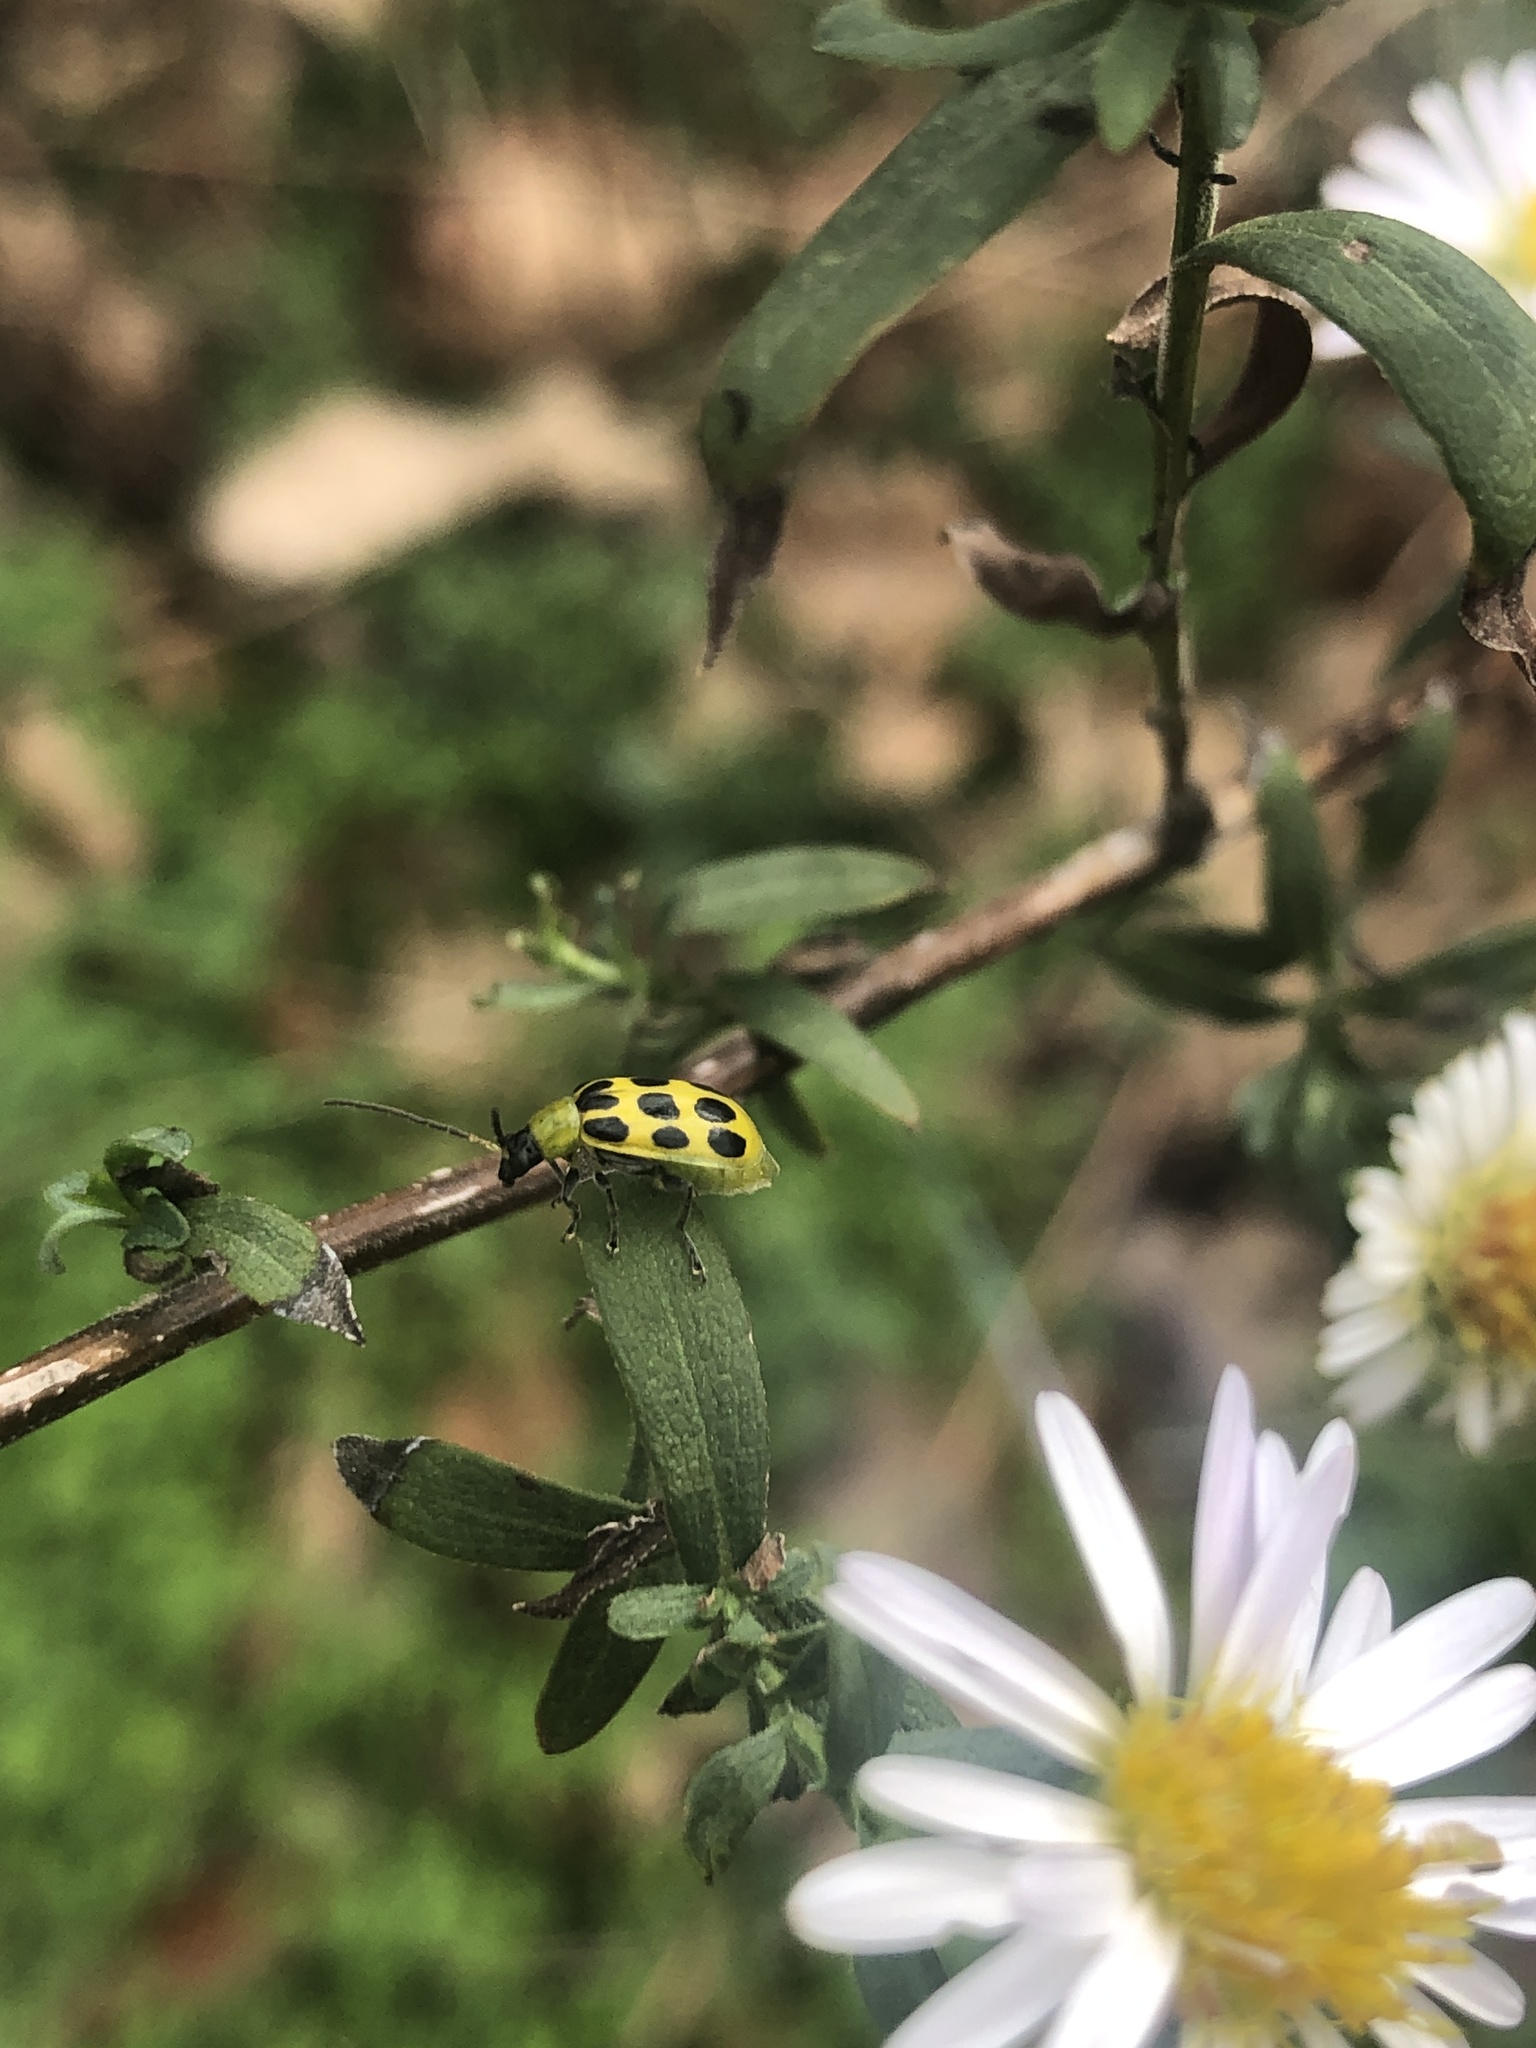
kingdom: Animalia
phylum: Arthropoda
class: Insecta
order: Coleoptera
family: Chrysomelidae
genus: Diabrotica
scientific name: Diabrotica undecimpunctata
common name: Spotted cucumber beetle
